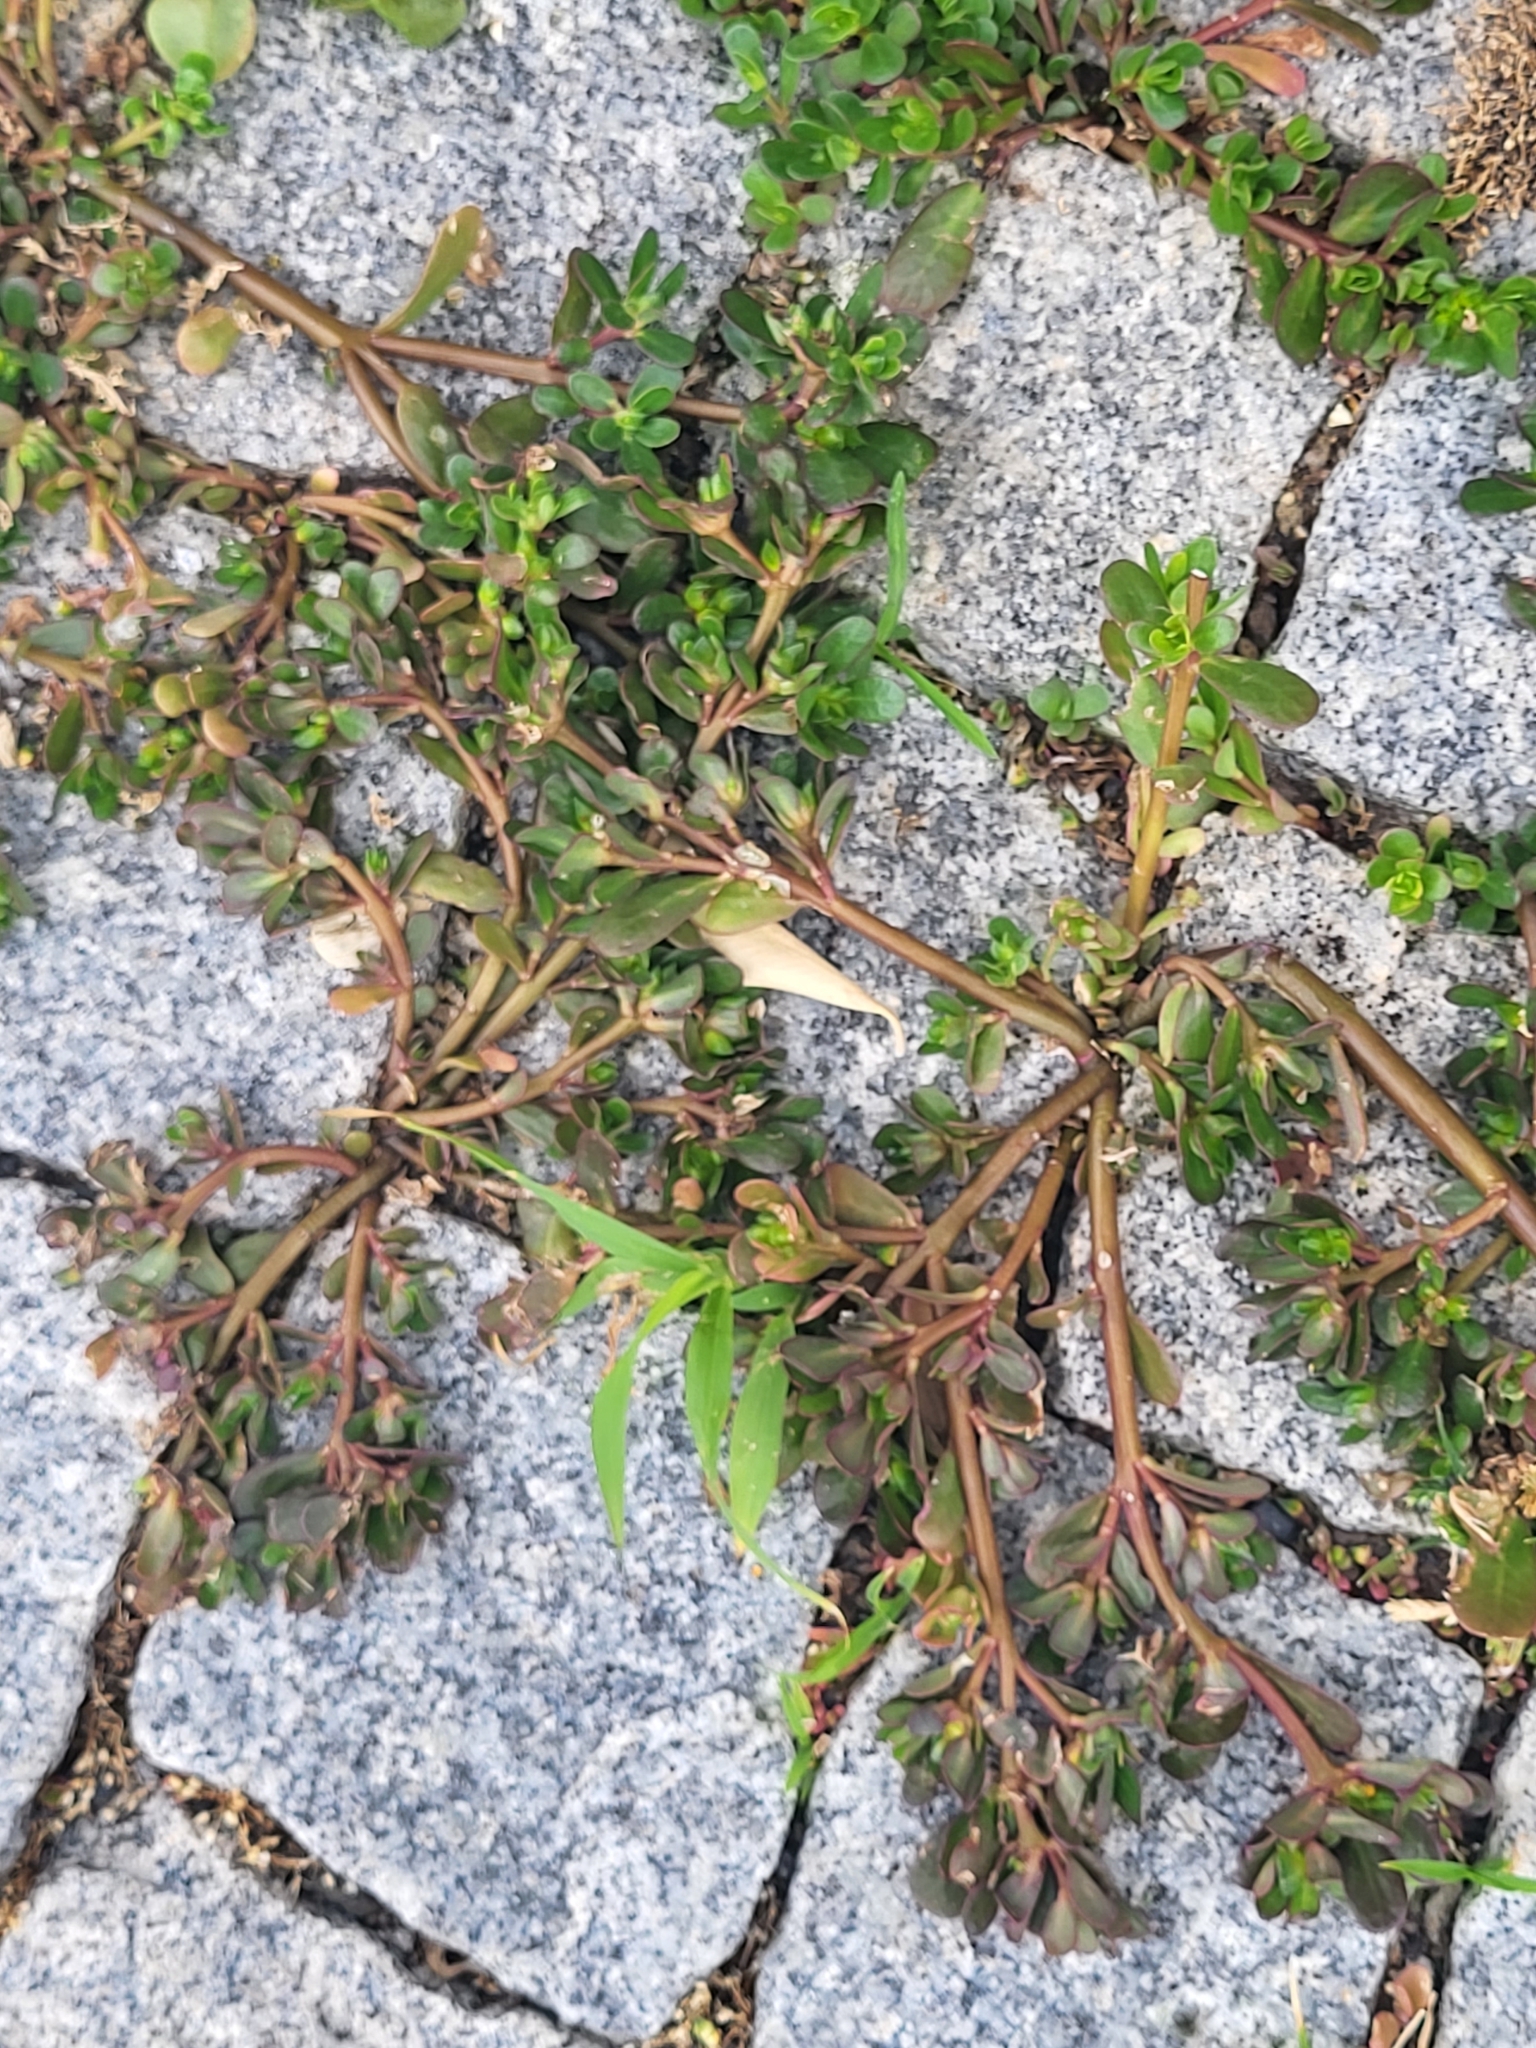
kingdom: Plantae
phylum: Tracheophyta
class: Magnoliopsida
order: Caryophyllales
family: Portulacaceae
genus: Portulaca
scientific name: Portulaca oleracea
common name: Common purslane
